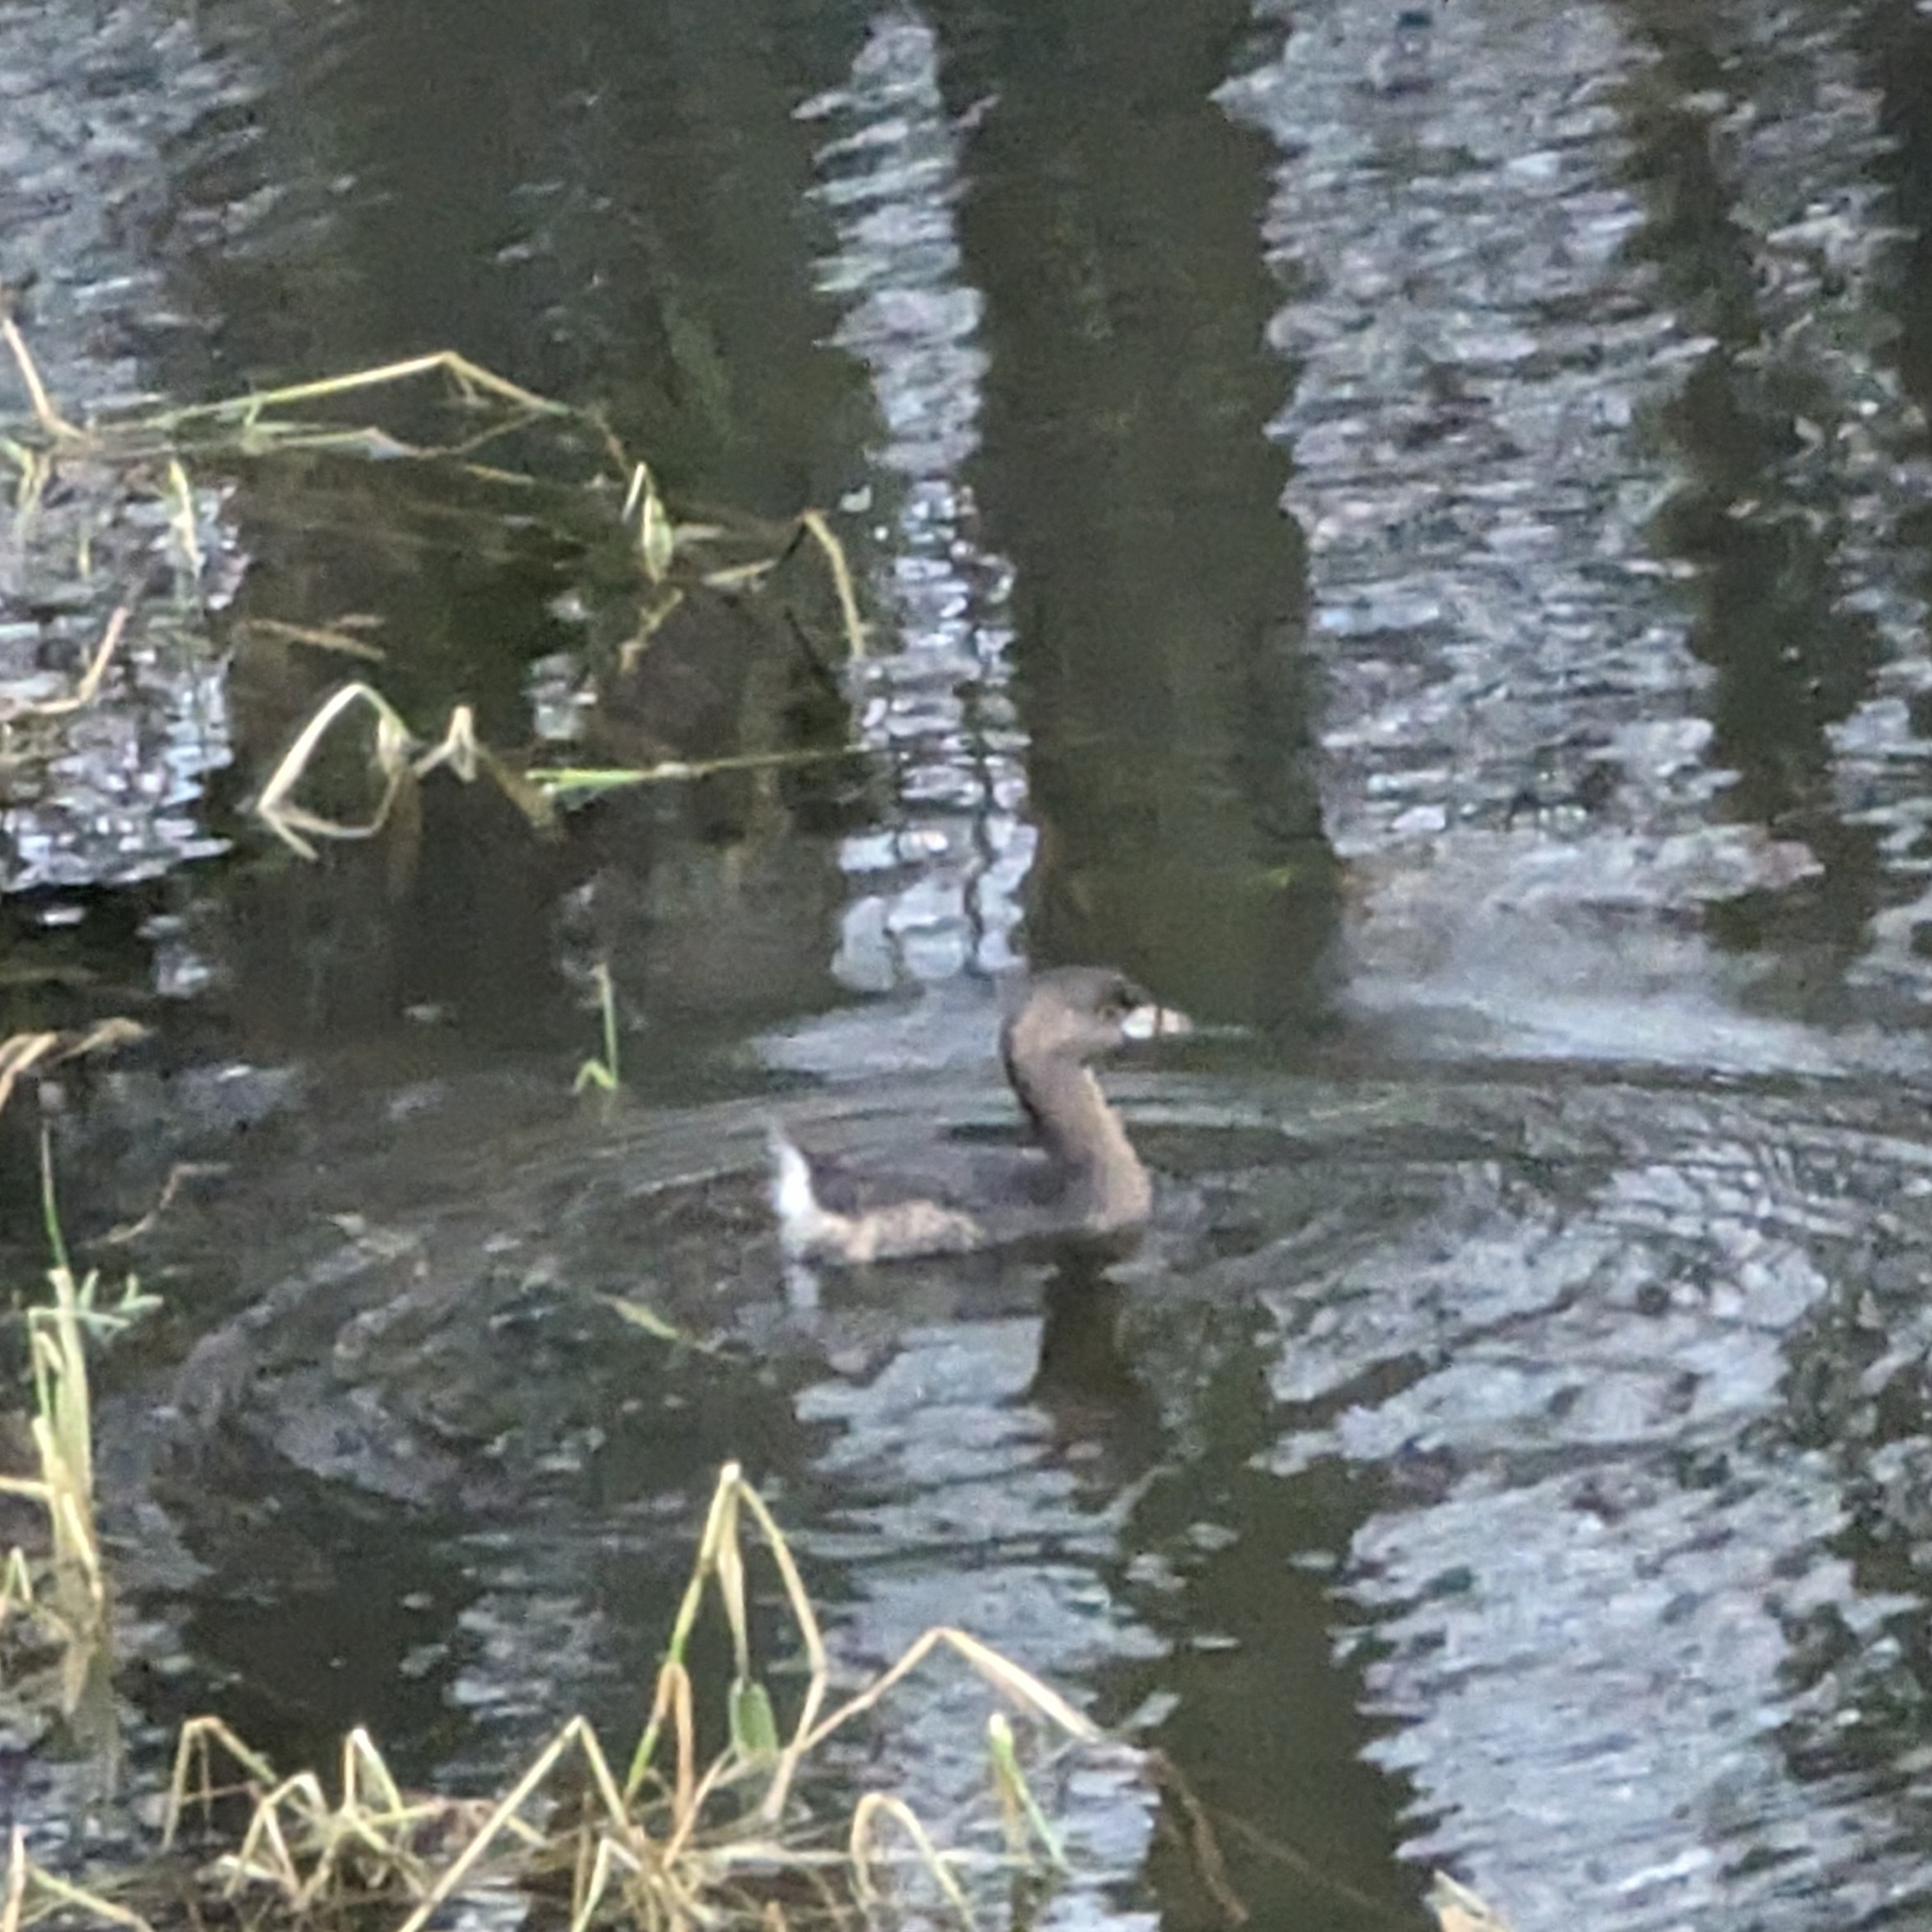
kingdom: Animalia
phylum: Chordata
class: Aves
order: Podicipediformes
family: Podicipedidae
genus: Podilymbus
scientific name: Podilymbus podiceps
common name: Pied-billed grebe
